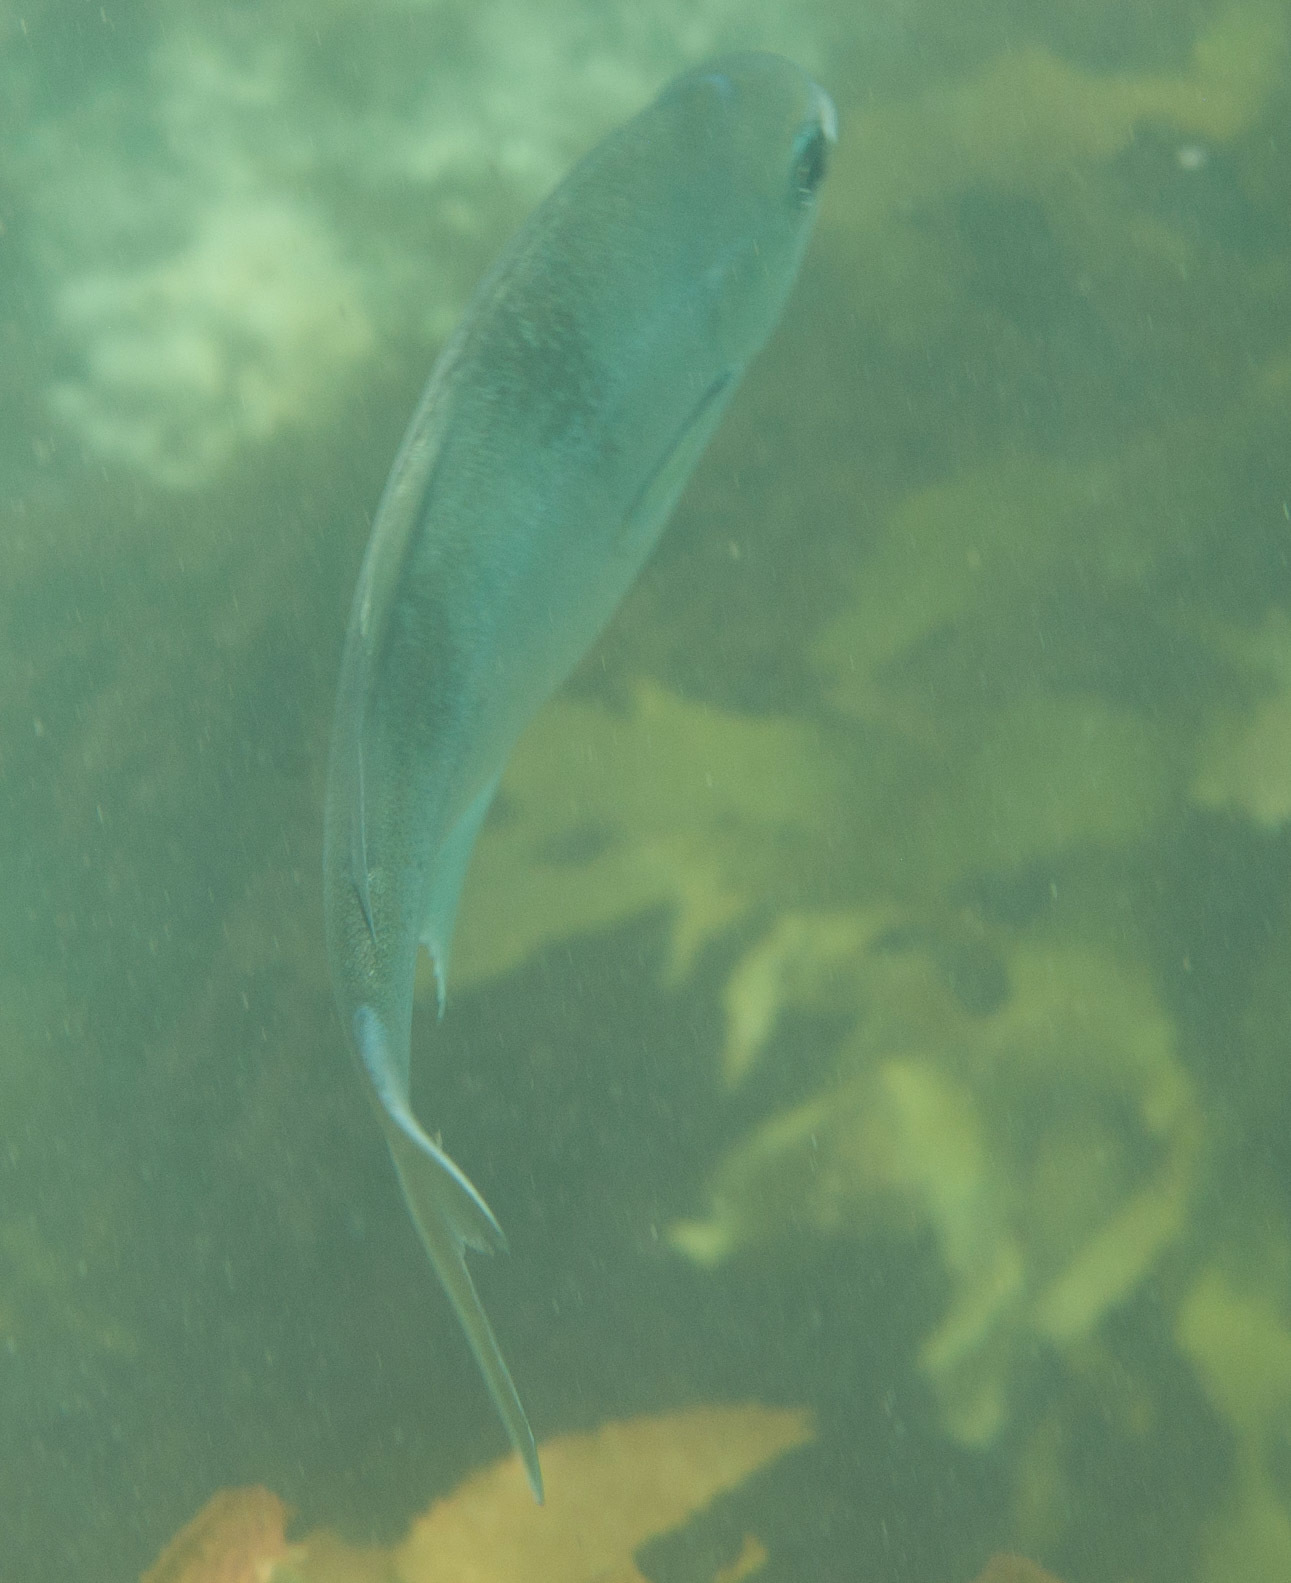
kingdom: Animalia
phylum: Chordata
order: Perciformes
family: Kyphosidae
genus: Scorpis
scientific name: Scorpis aequipinnis
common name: Sea sweep
